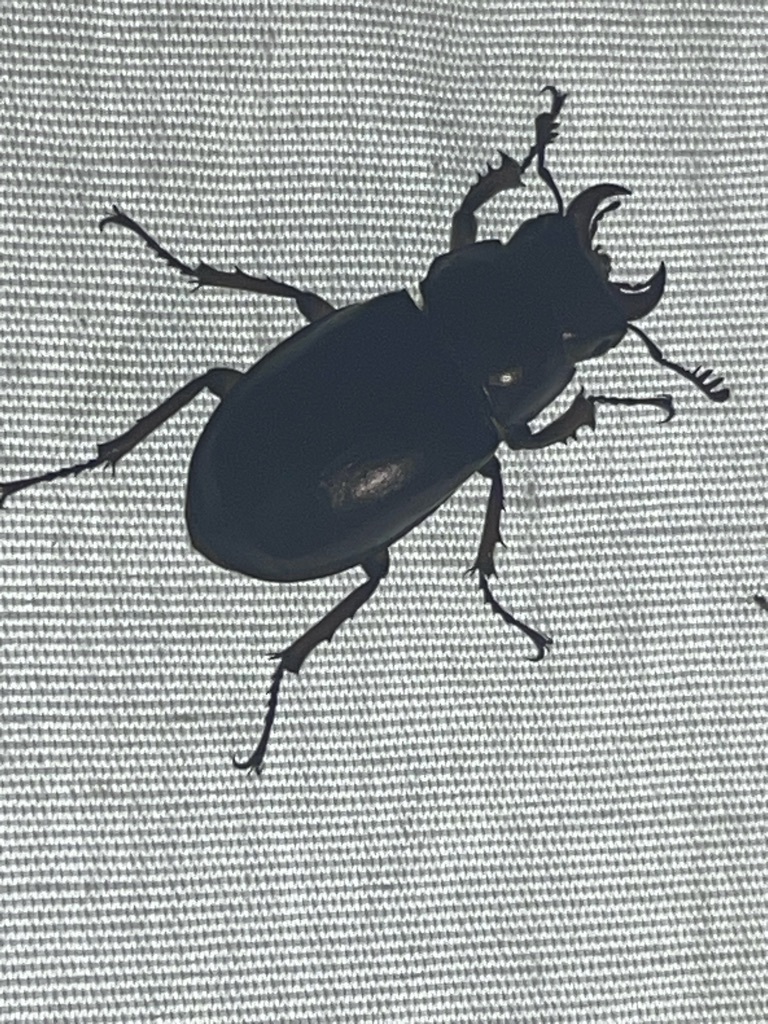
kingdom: Animalia
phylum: Arthropoda
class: Insecta
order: Coleoptera
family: Lucanidae
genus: Lucanus
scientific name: Lucanus capreolus
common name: Stag beetle
